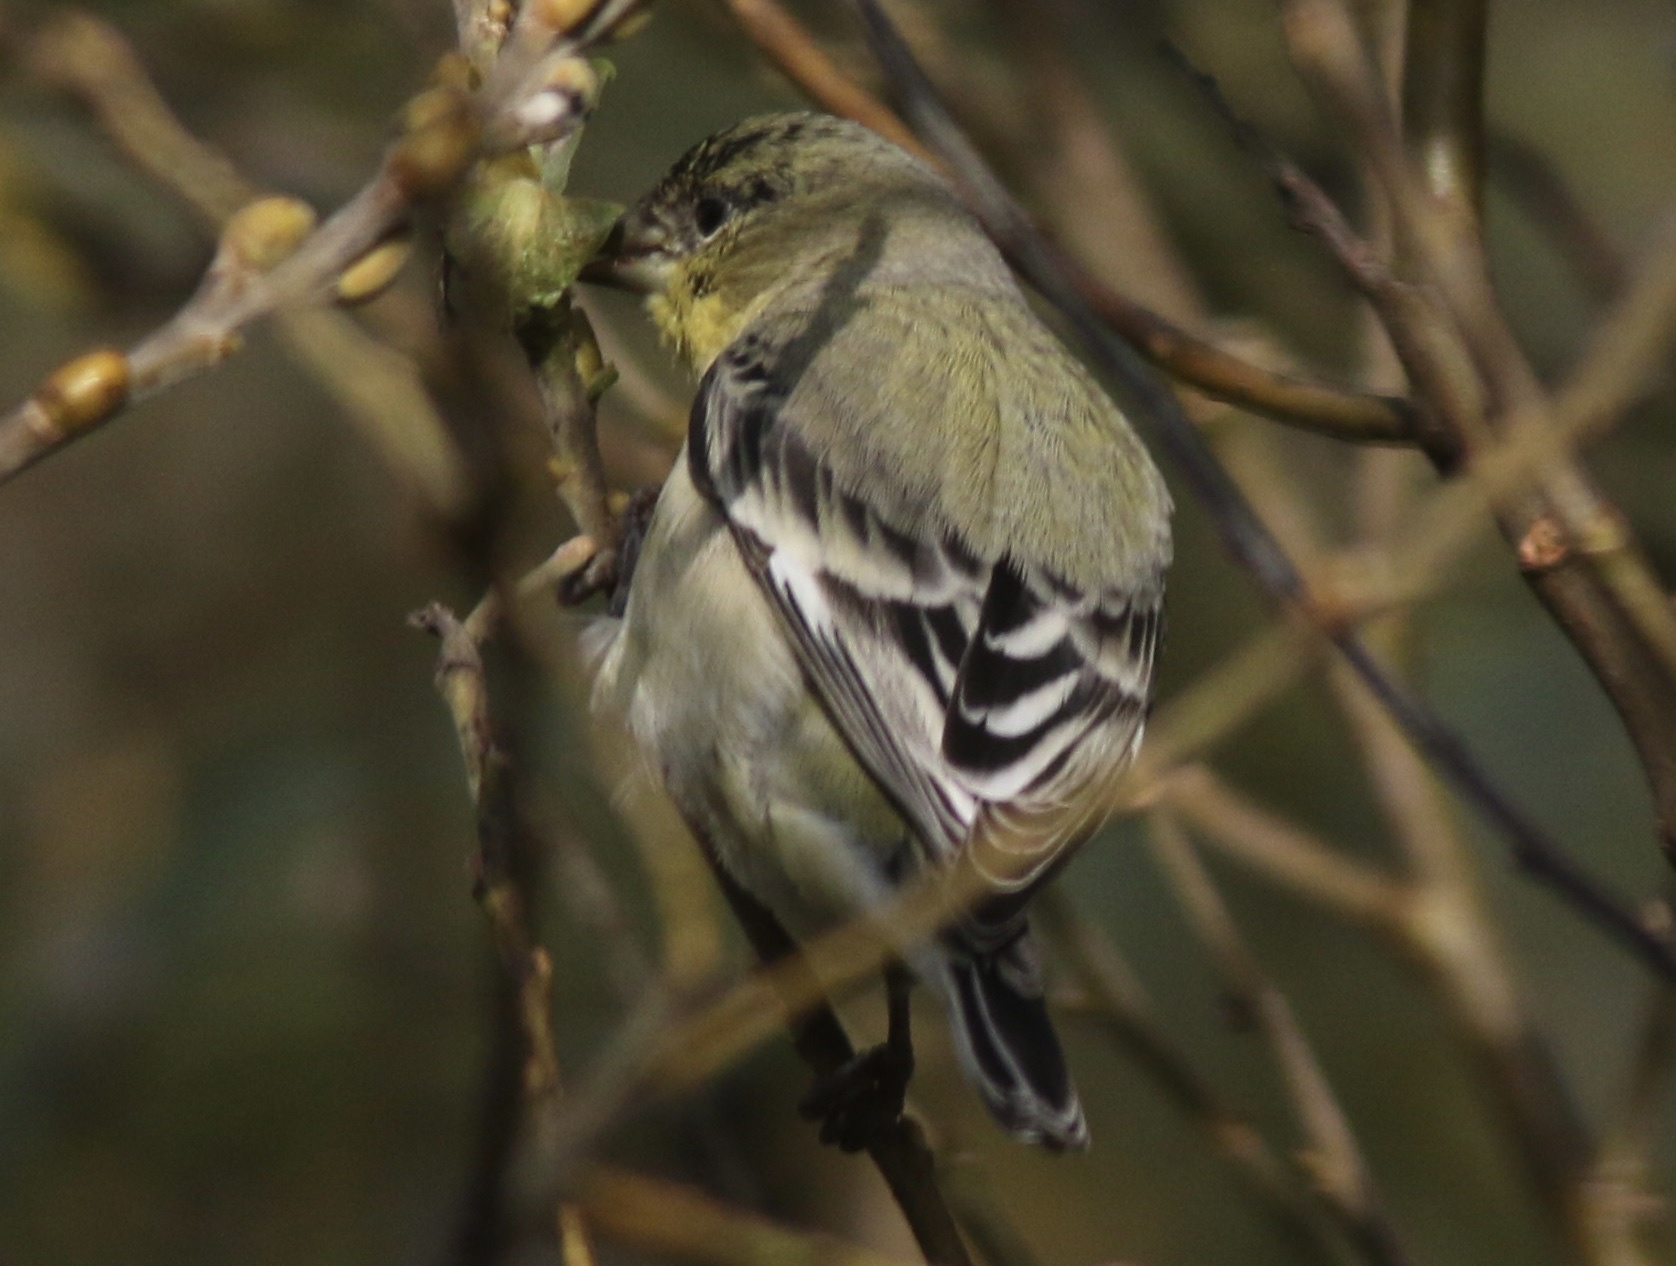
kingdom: Animalia
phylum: Chordata
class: Aves
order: Passeriformes
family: Fringillidae
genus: Spinus
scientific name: Spinus psaltria
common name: Lesser goldfinch
